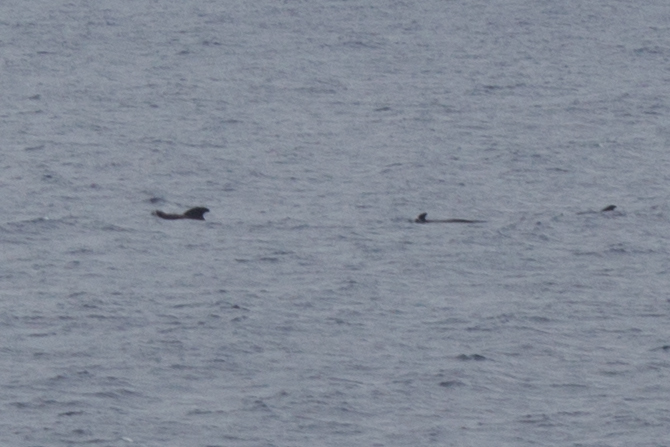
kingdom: Animalia
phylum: Chordata
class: Mammalia
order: Cetacea
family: Delphinidae
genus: Globicephala
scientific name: Globicephala macrorhynchus
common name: Short-finned pilot whale
